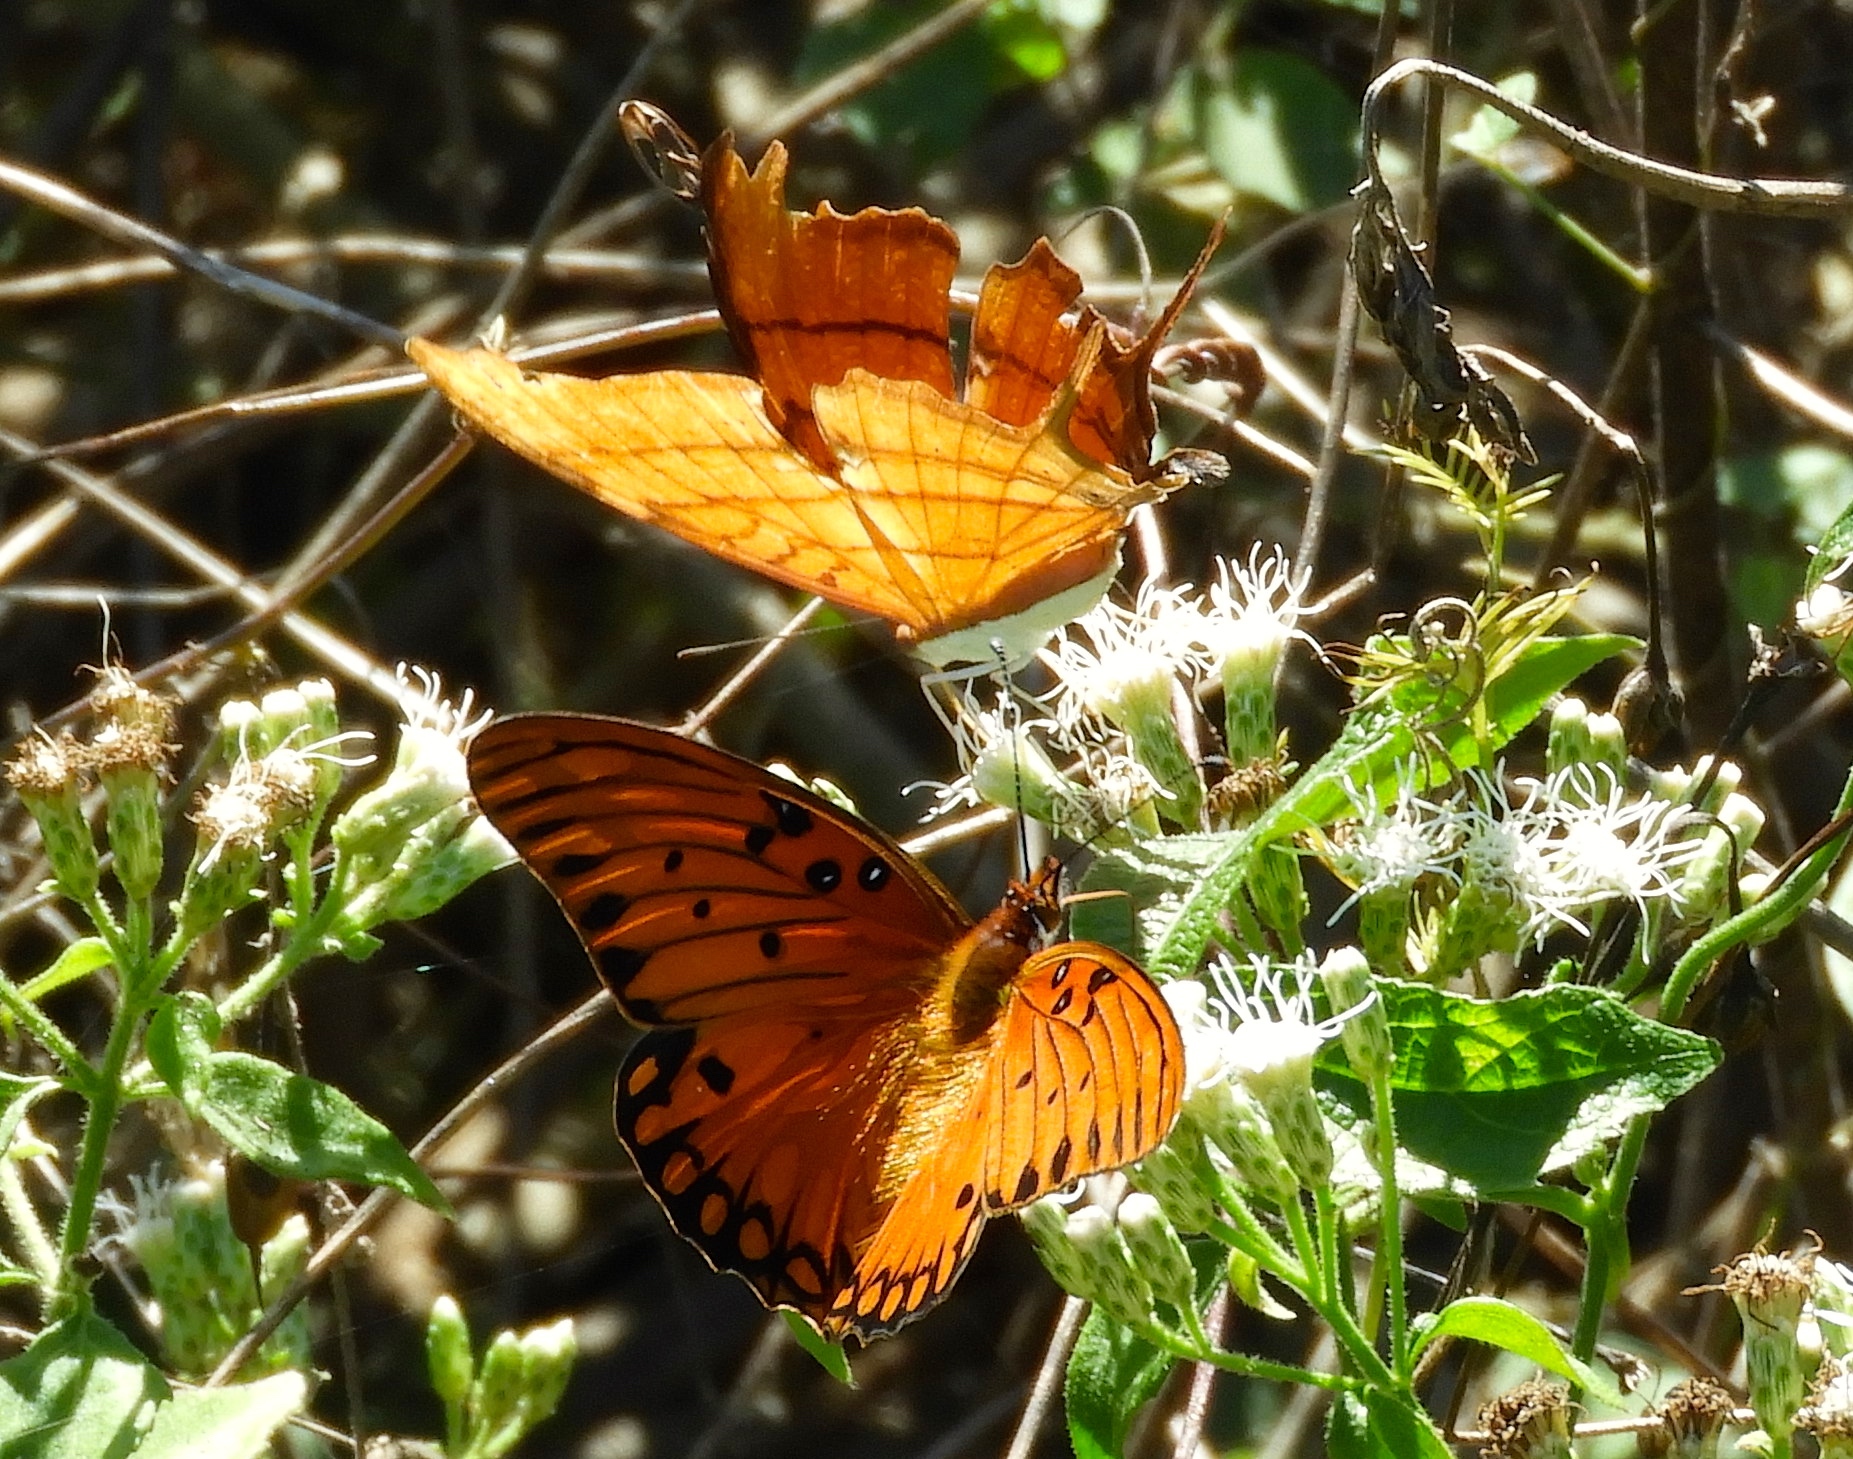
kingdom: Animalia
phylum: Arthropoda
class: Insecta
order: Lepidoptera
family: Nymphalidae
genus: Marpesia
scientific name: Marpesia petreus
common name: Red dagger wing
